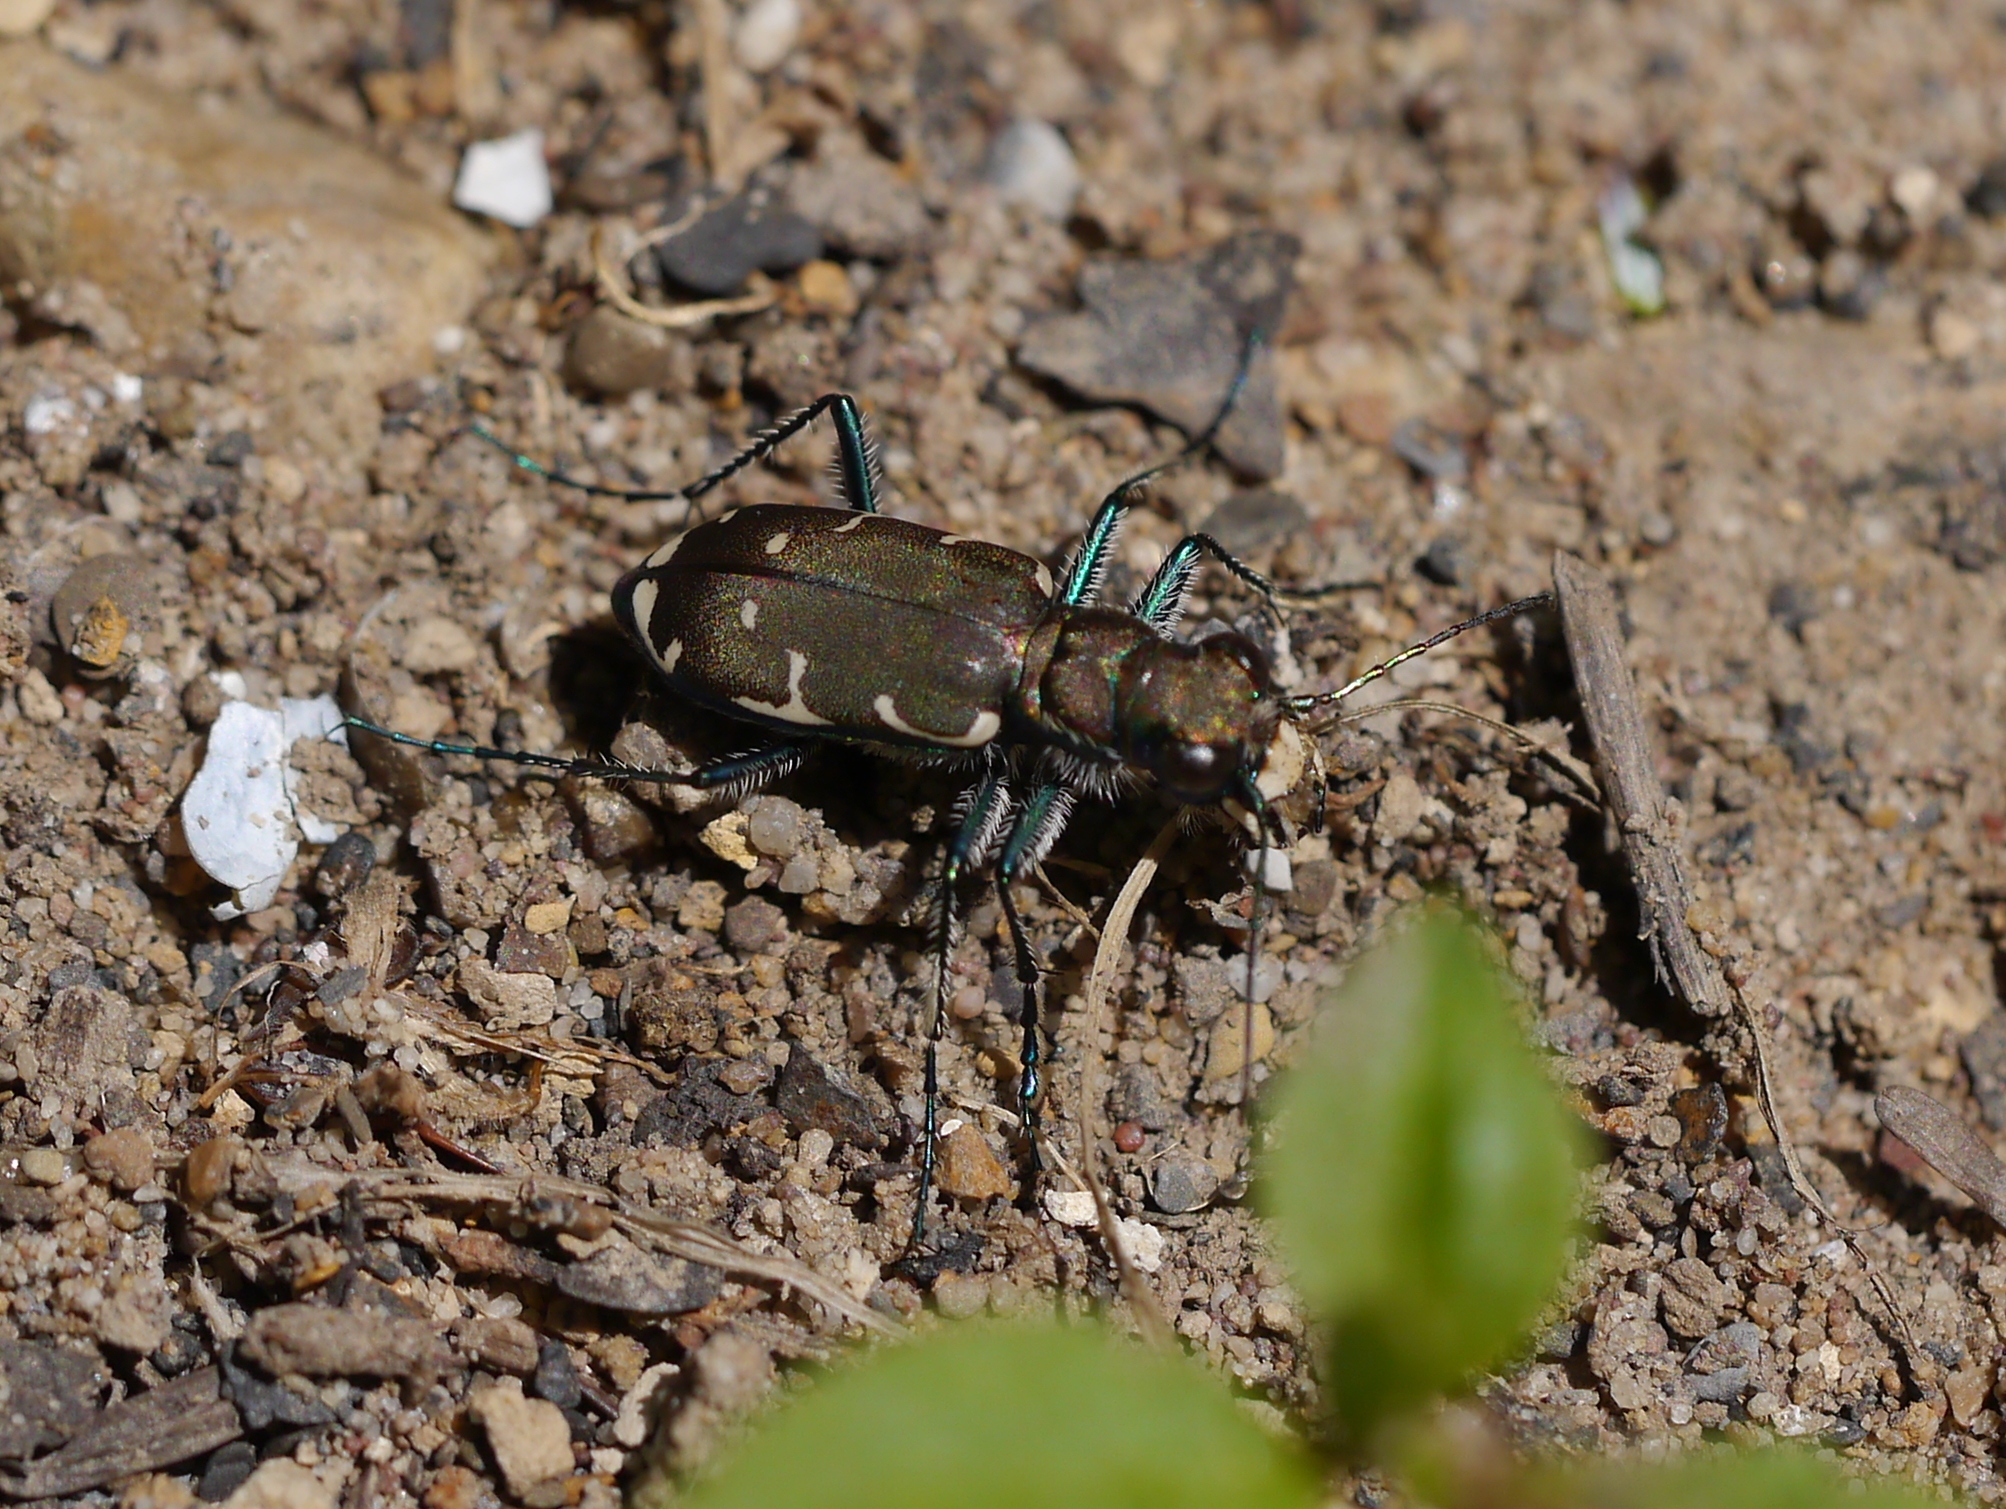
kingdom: Animalia
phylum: Arthropoda
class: Insecta
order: Coleoptera
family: Carabidae
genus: Cicindela
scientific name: Cicindela ancocisconensis
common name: Appalachian tiger beetle
